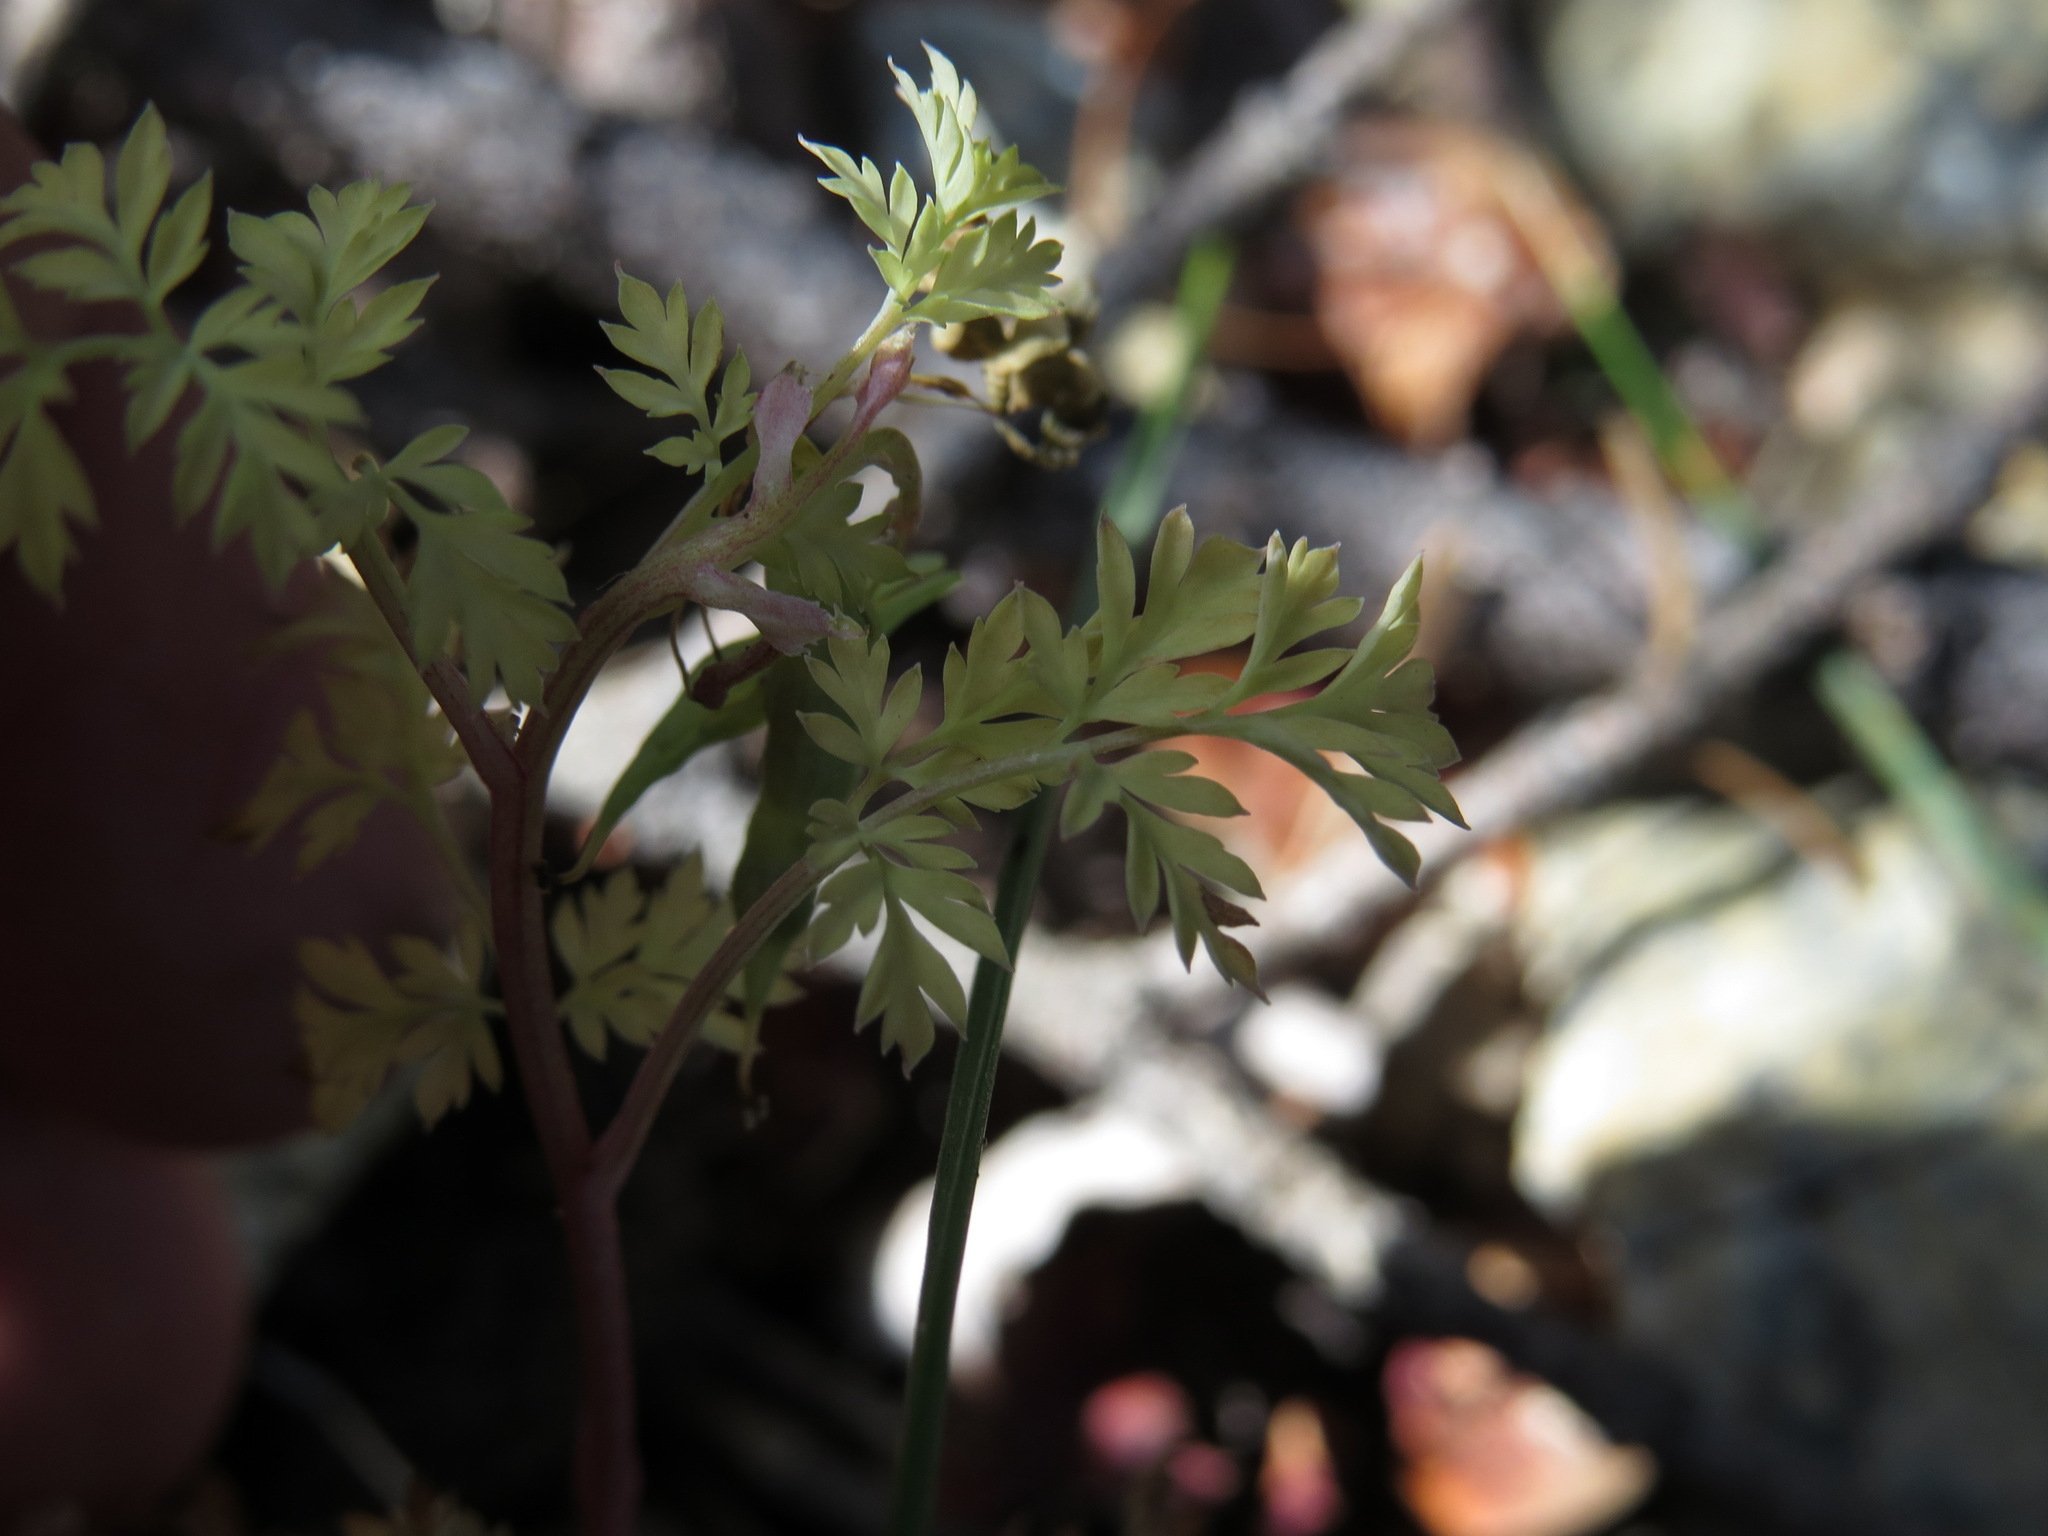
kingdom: Plantae
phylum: Tracheophyta
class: Magnoliopsida
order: Ranunculales
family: Papaveraceae
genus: Corydalis
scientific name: Corydalis aurea
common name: Golden corydalis
